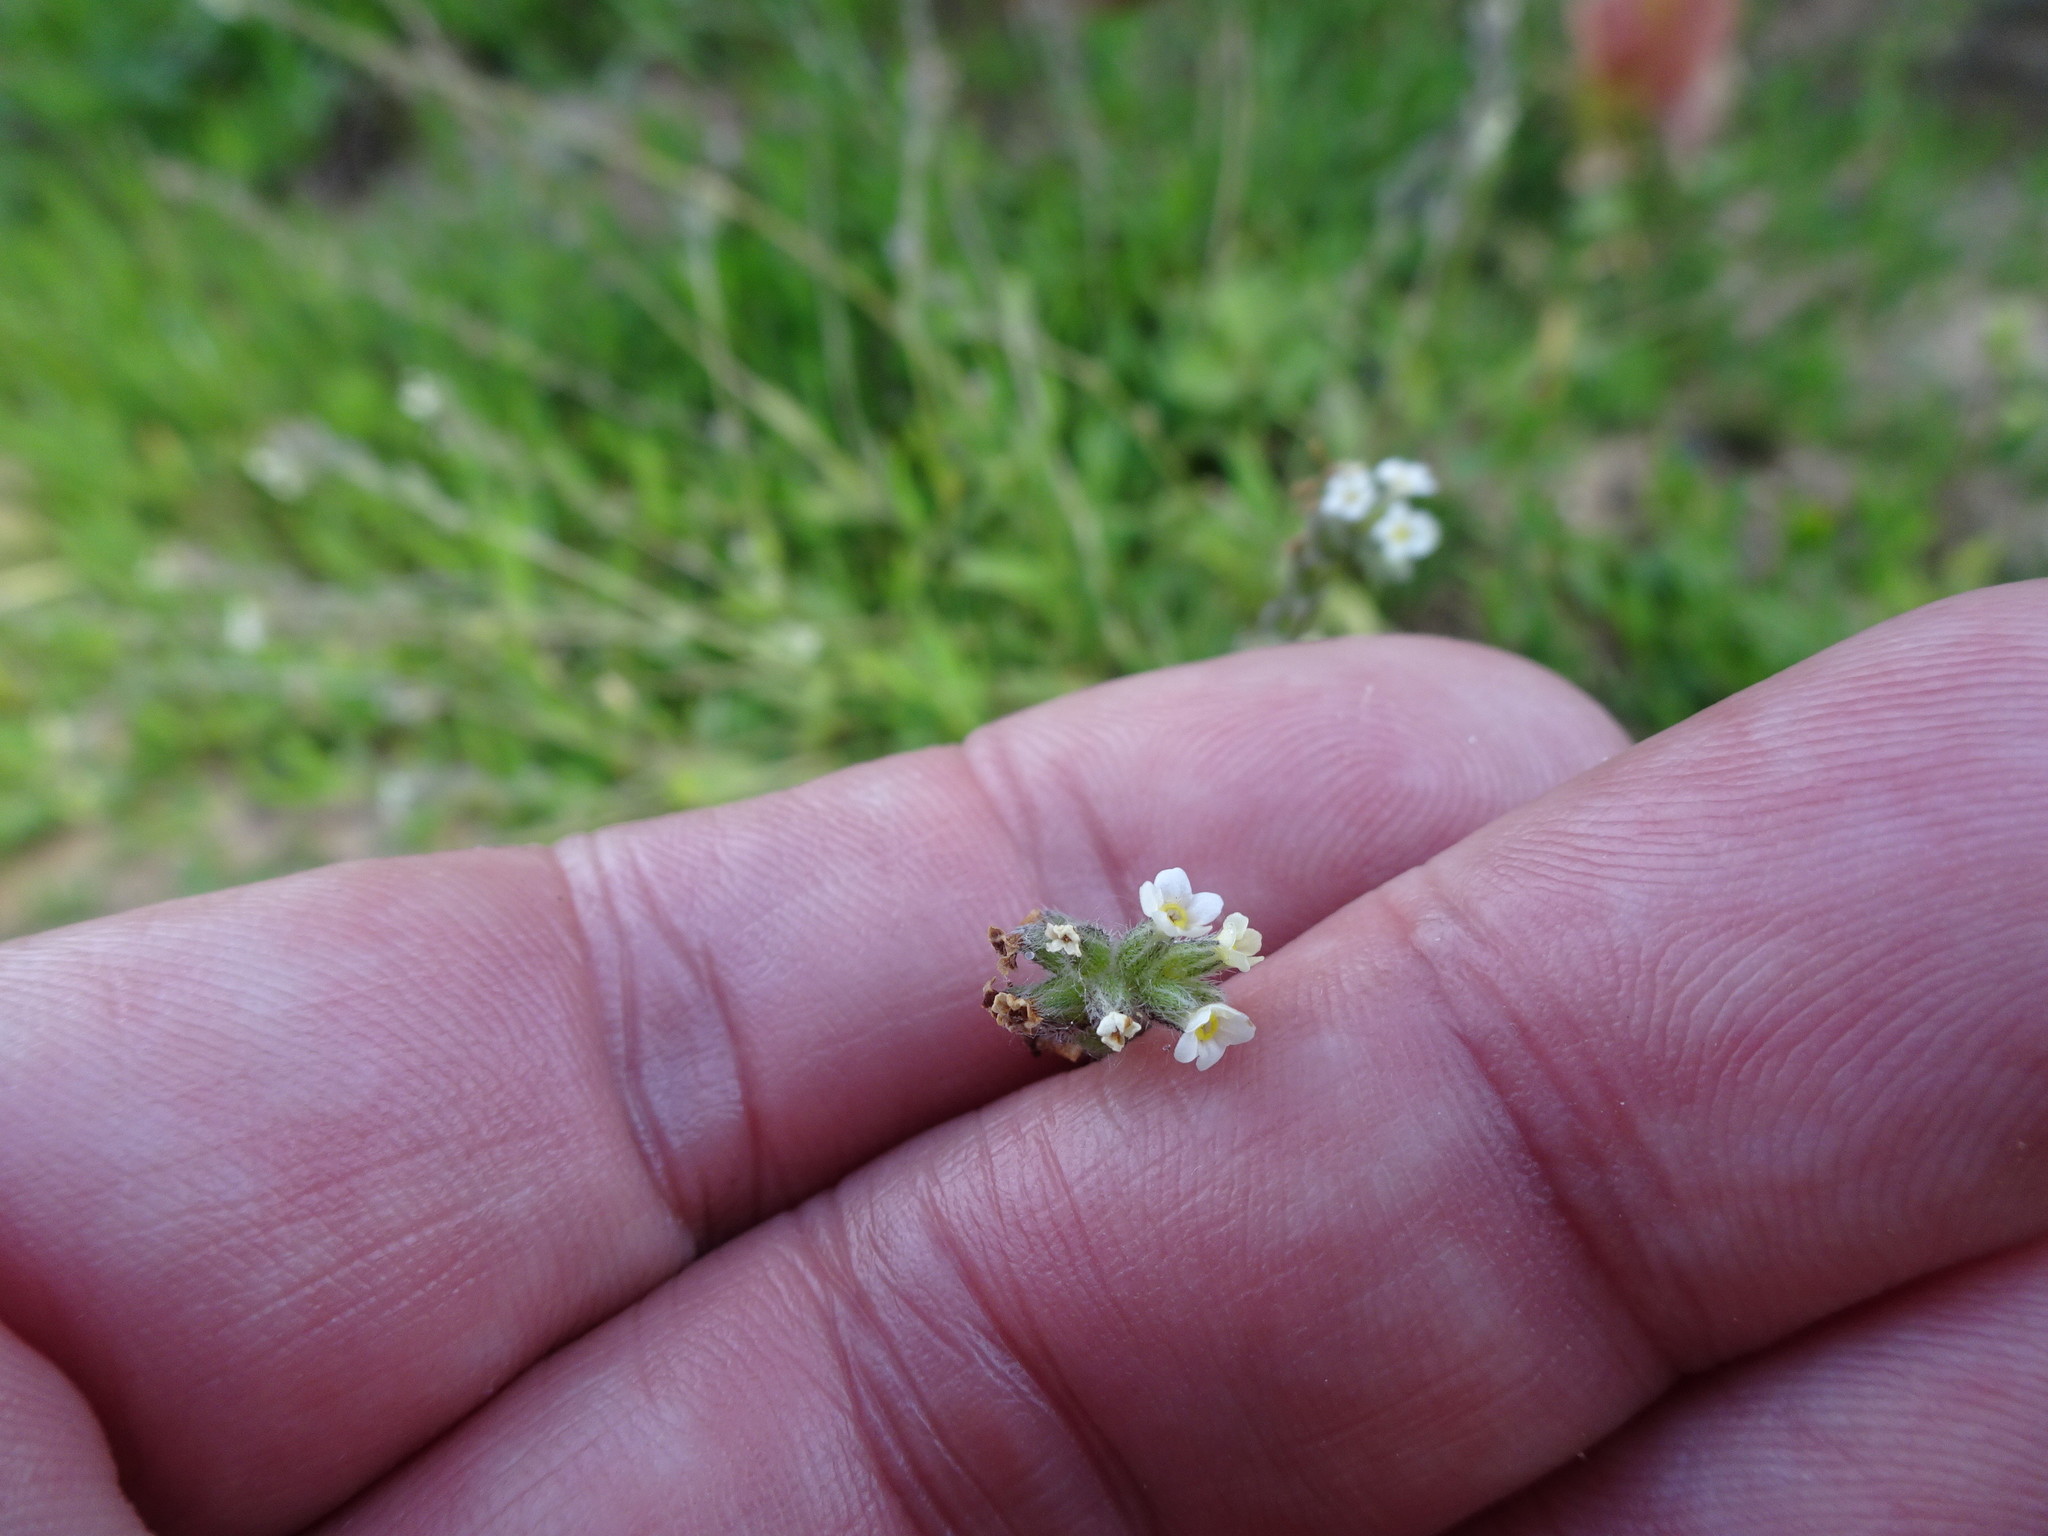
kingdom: Plantae
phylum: Tracheophyta
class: Magnoliopsida
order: Boraginales
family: Boraginaceae
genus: Myosotis
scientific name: Myosotis discolor
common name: Changing forget-me-not
